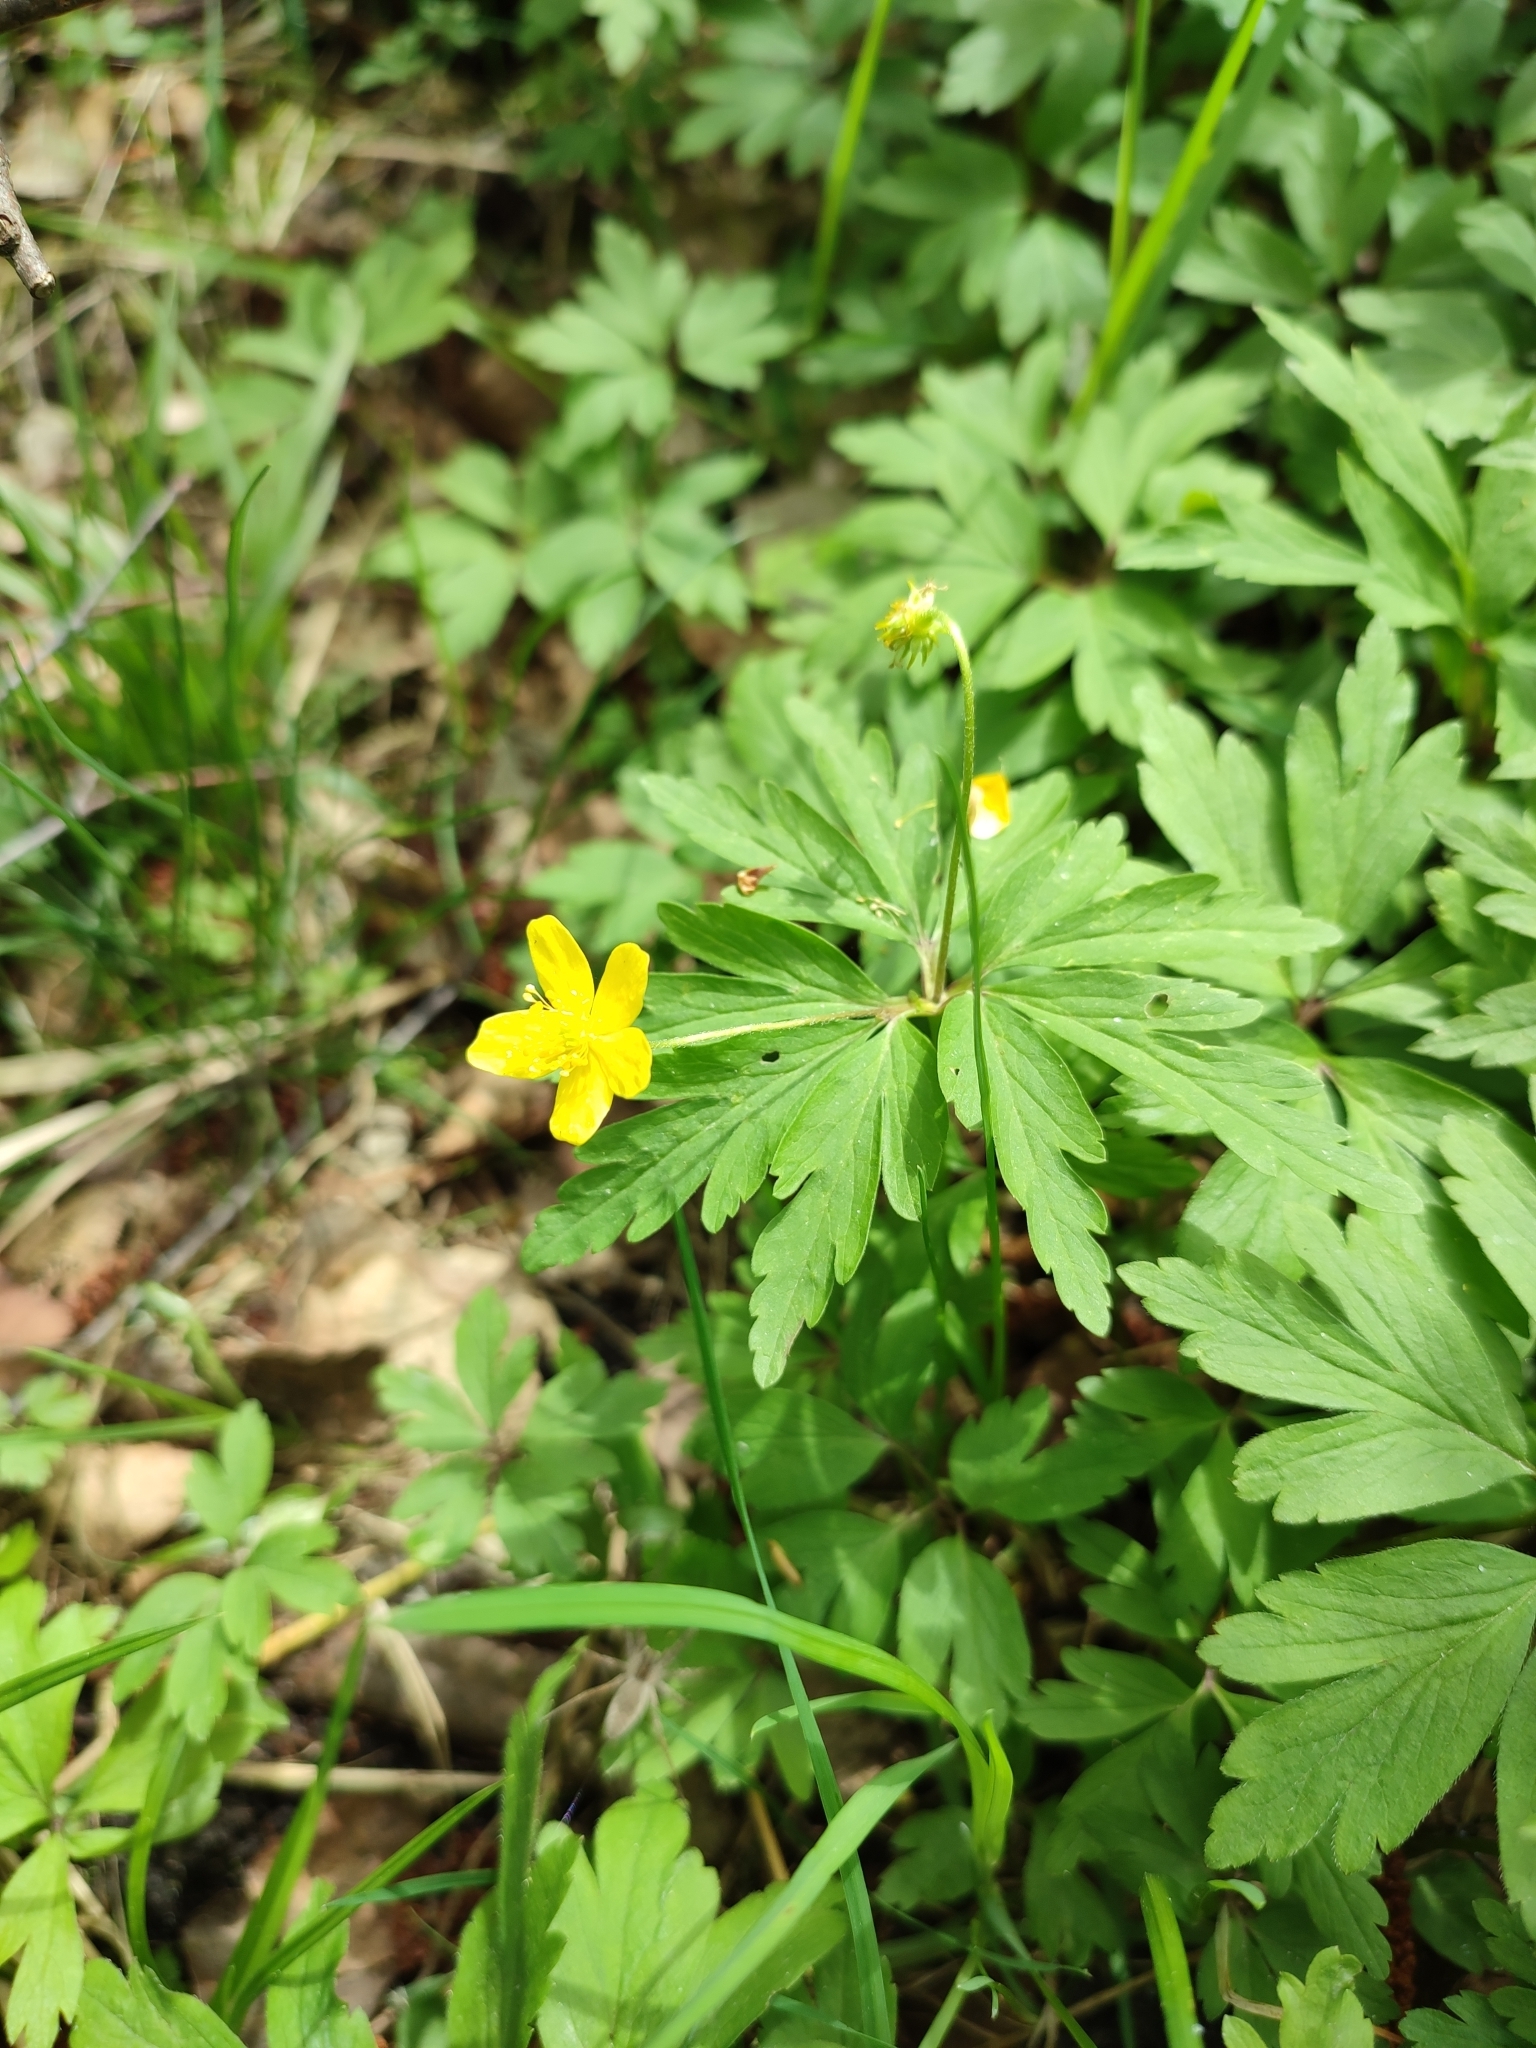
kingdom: Plantae
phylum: Tracheophyta
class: Magnoliopsida
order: Ranunculales
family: Ranunculaceae
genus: Anemone
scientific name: Anemone ranunculoides
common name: Yellow anemone
